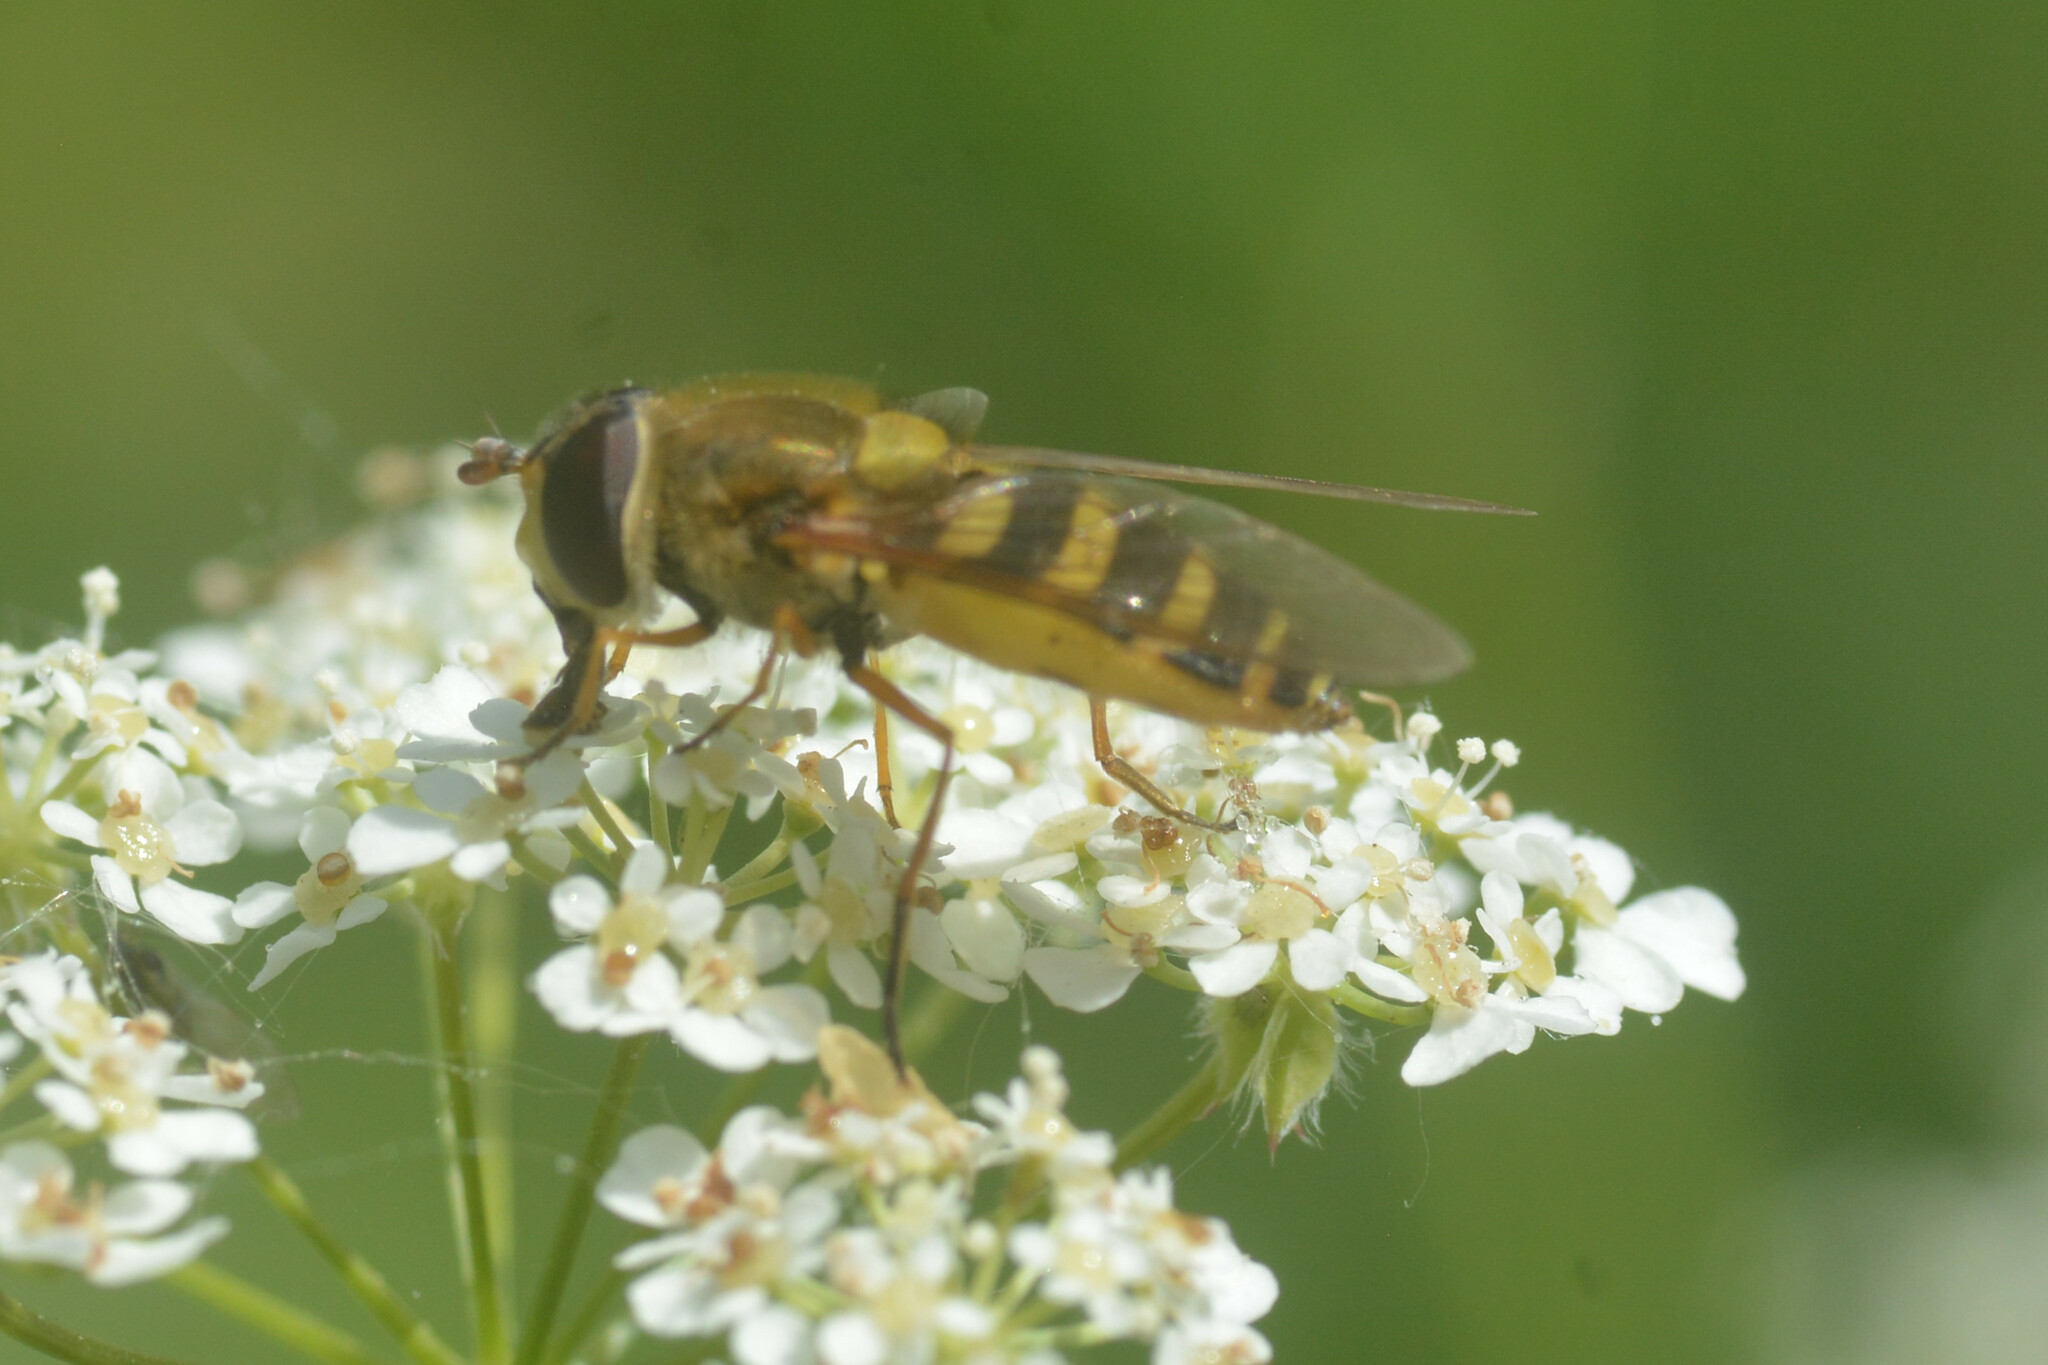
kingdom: Animalia
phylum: Arthropoda
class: Insecta
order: Diptera
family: Syrphidae
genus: Syrphus
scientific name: Syrphus ribesii
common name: Common flower fly
